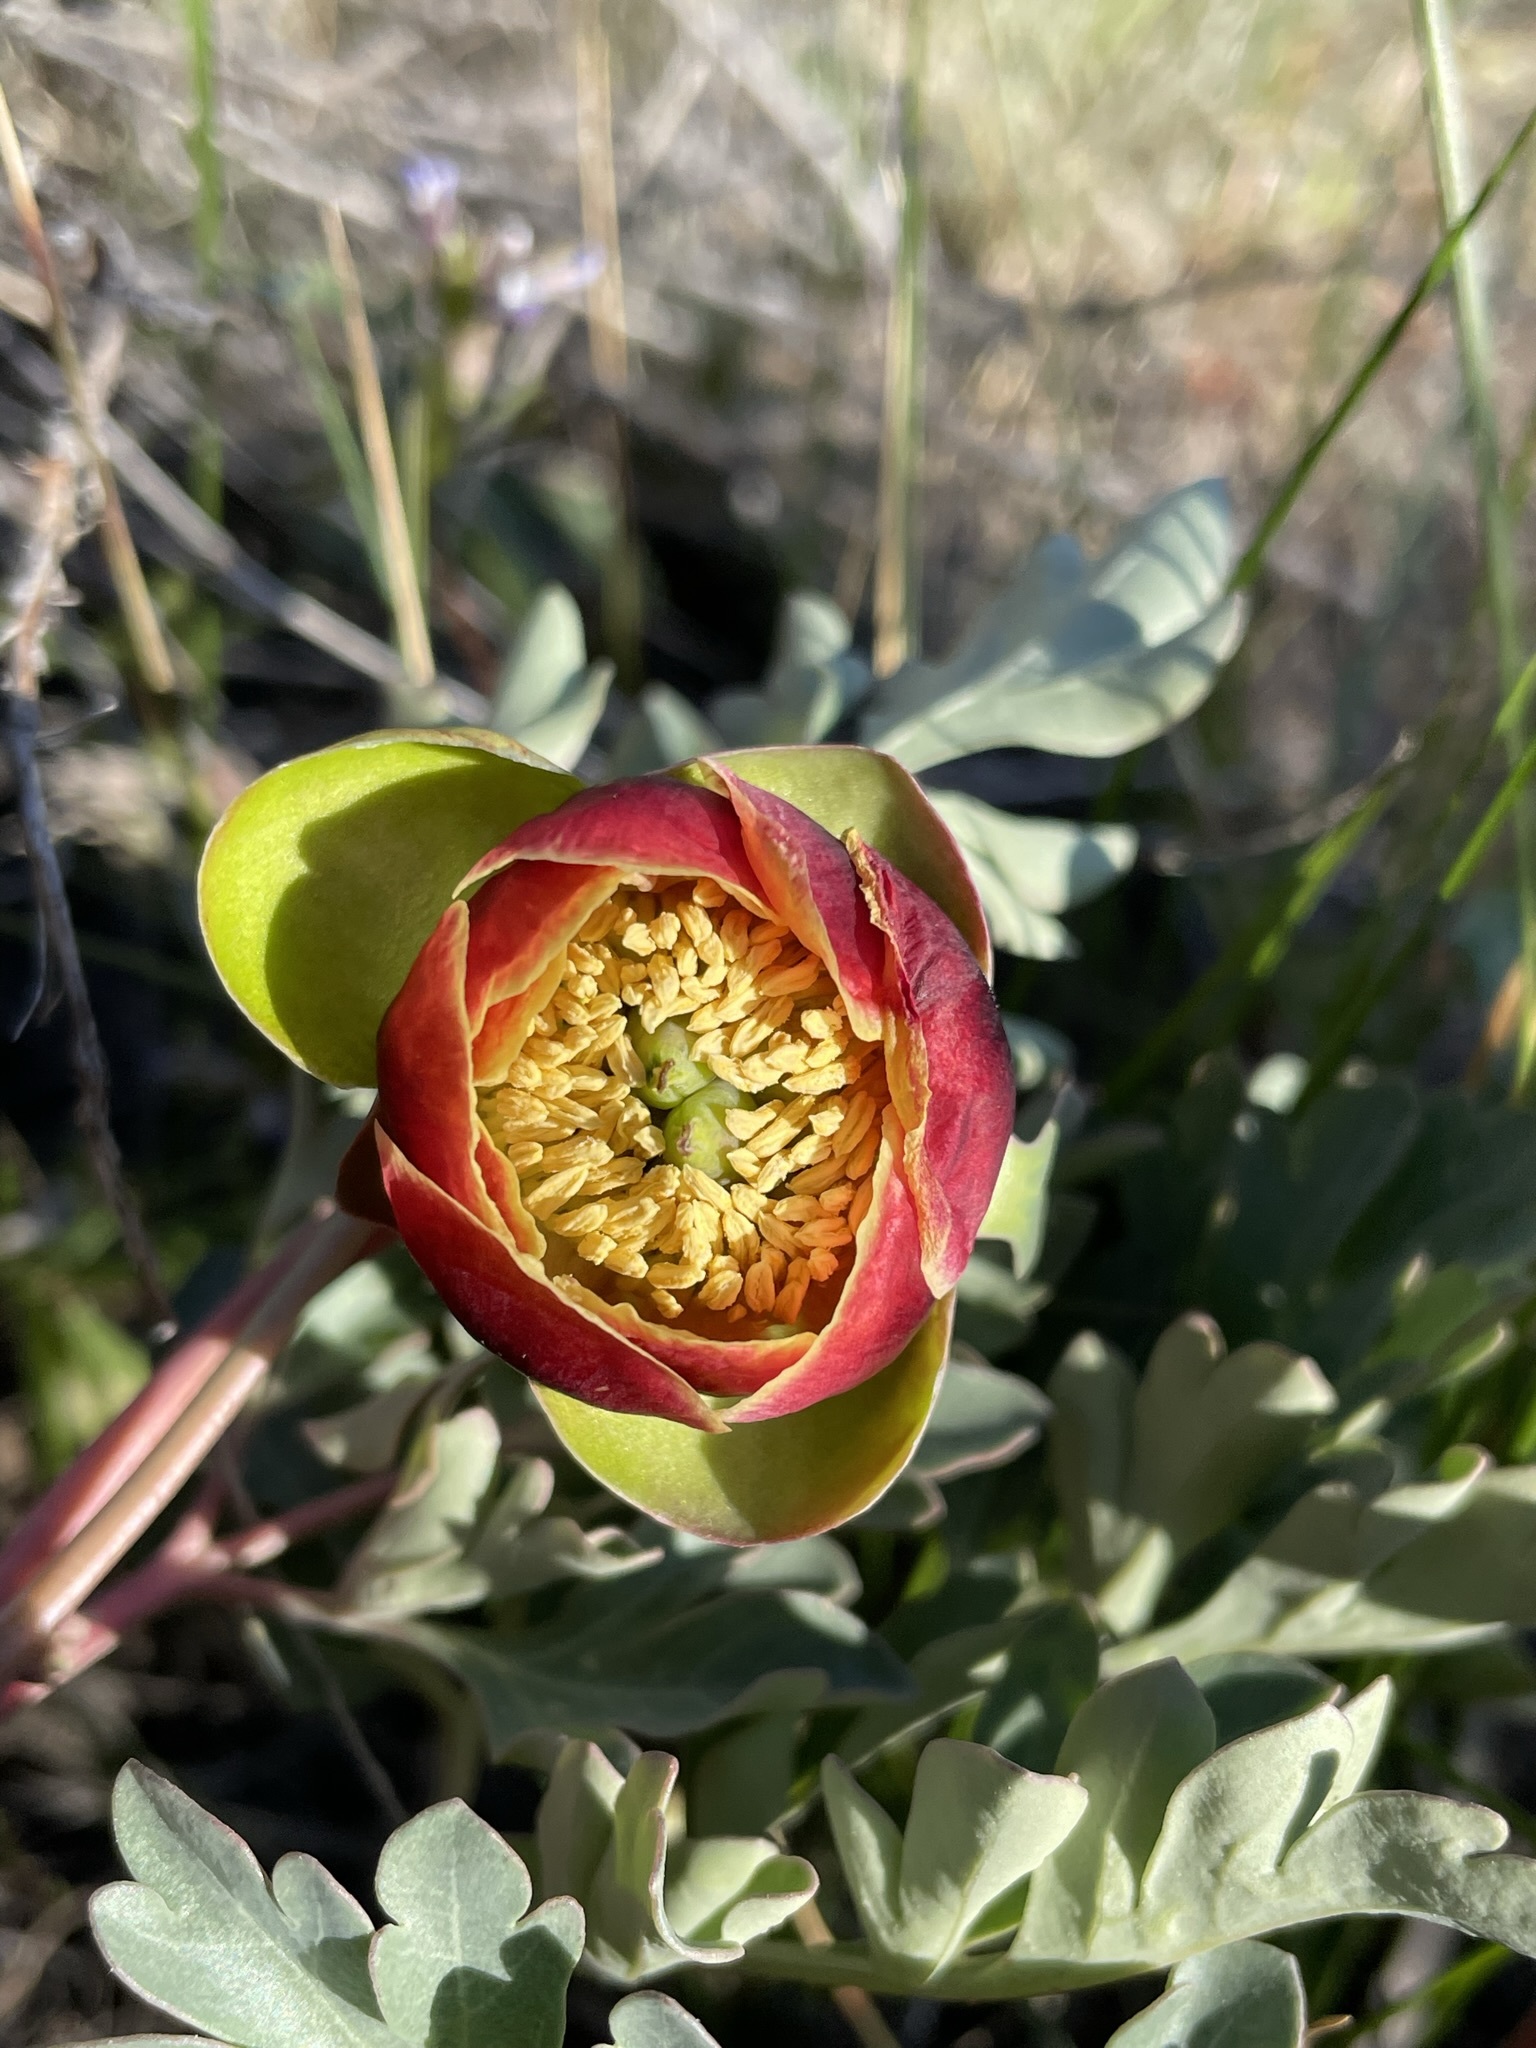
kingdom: Plantae
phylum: Tracheophyta
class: Magnoliopsida
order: Saxifragales
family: Paeoniaceae
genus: Paeonia
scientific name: Paeonia brownii
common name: Brown's peony
